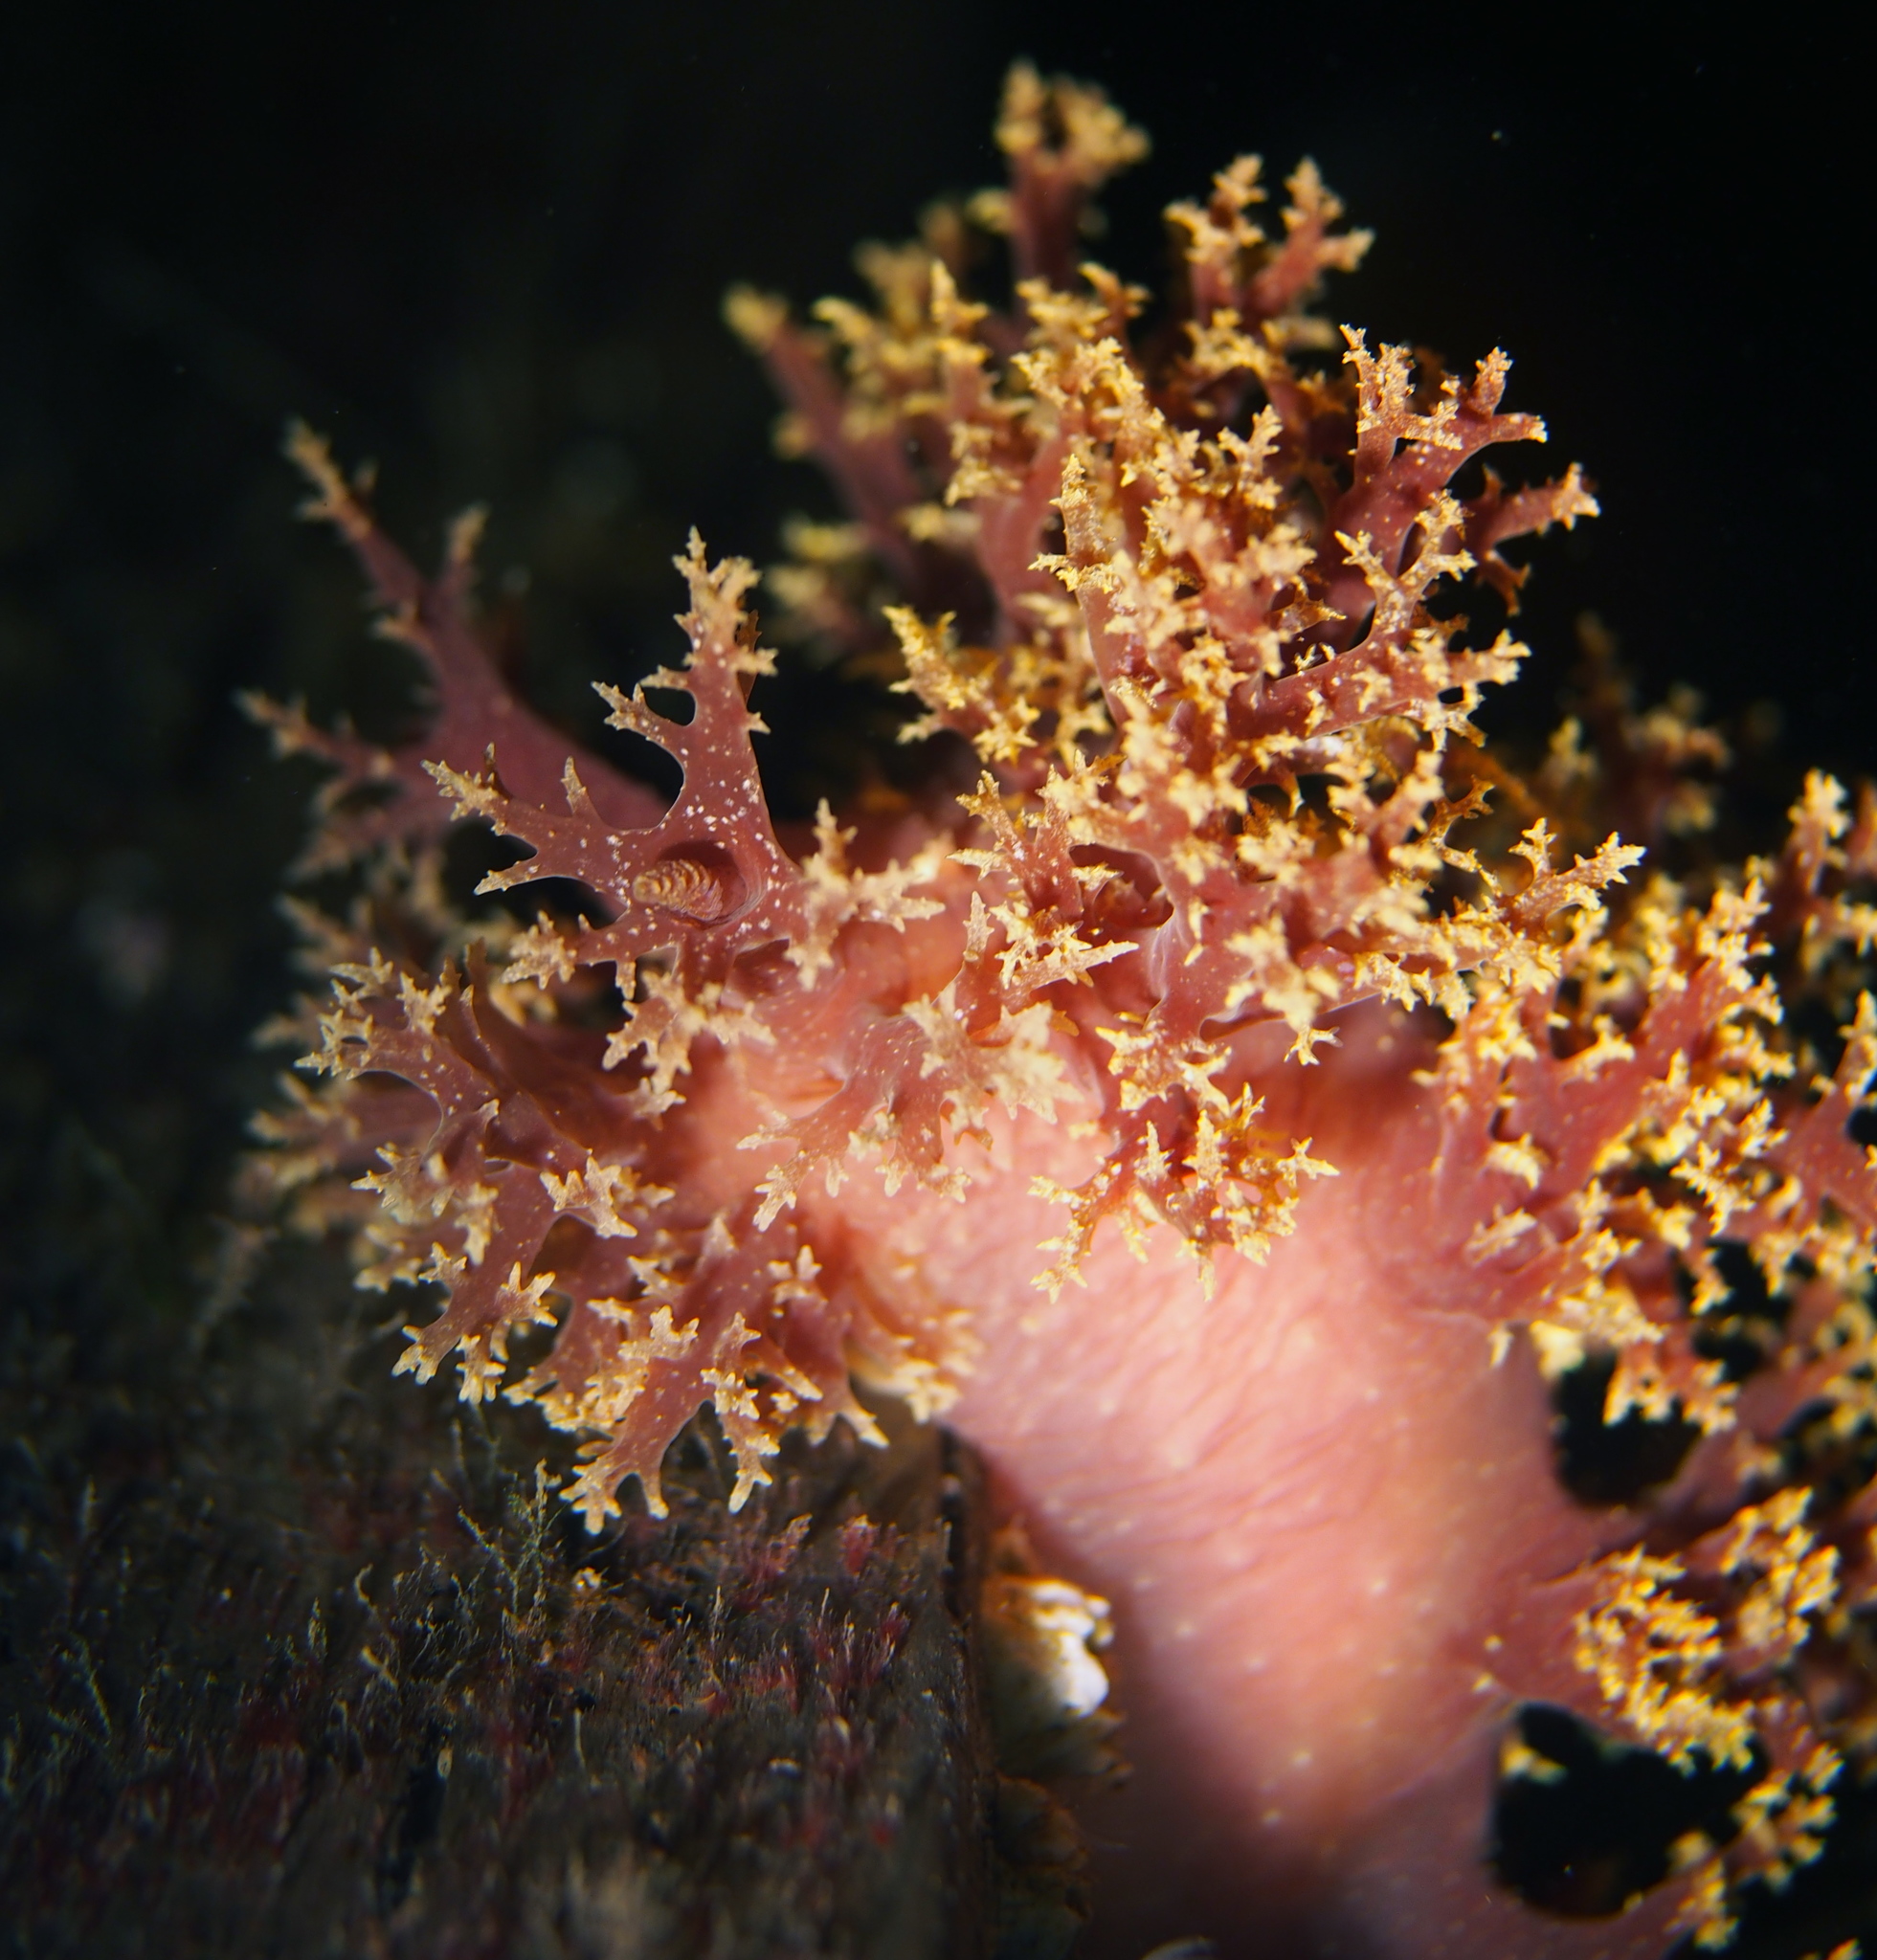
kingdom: Animalia
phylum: Mollusca
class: Gastropoda
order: Nudibranchia
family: Dendronotidae
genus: Dendronotus
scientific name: Dendronotus lacteus
